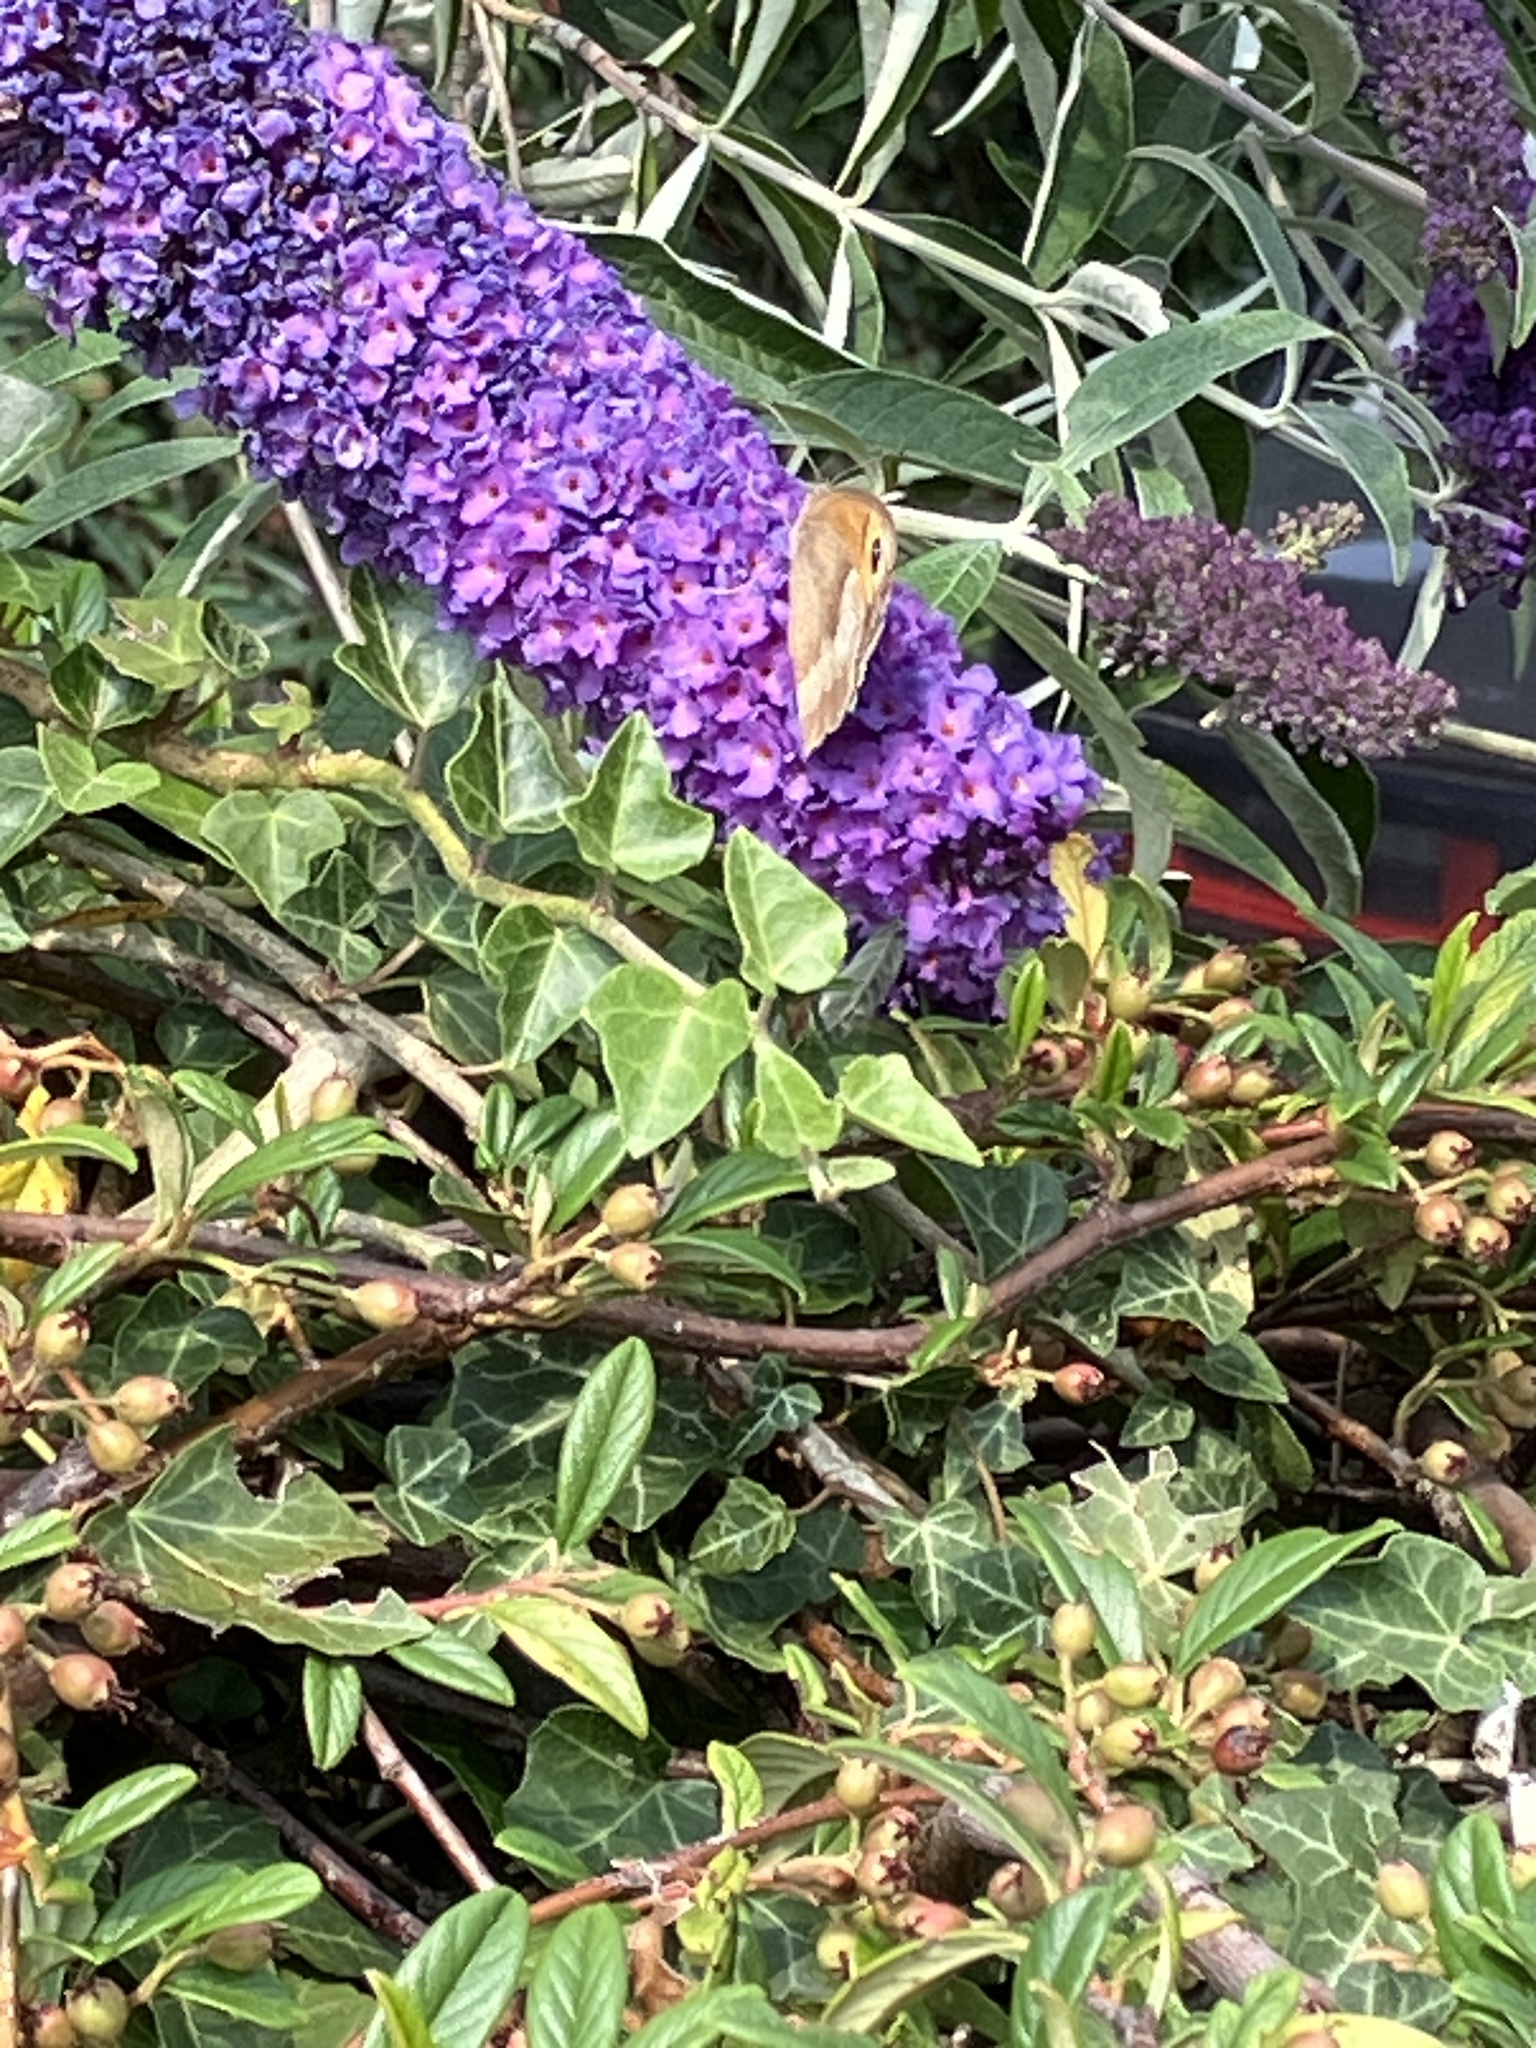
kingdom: Animalia
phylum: Arthropoda
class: Insecta
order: Lepidoptera
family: Nymphalidae
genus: Maniola
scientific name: Maniola jurtina
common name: Meadow brown
